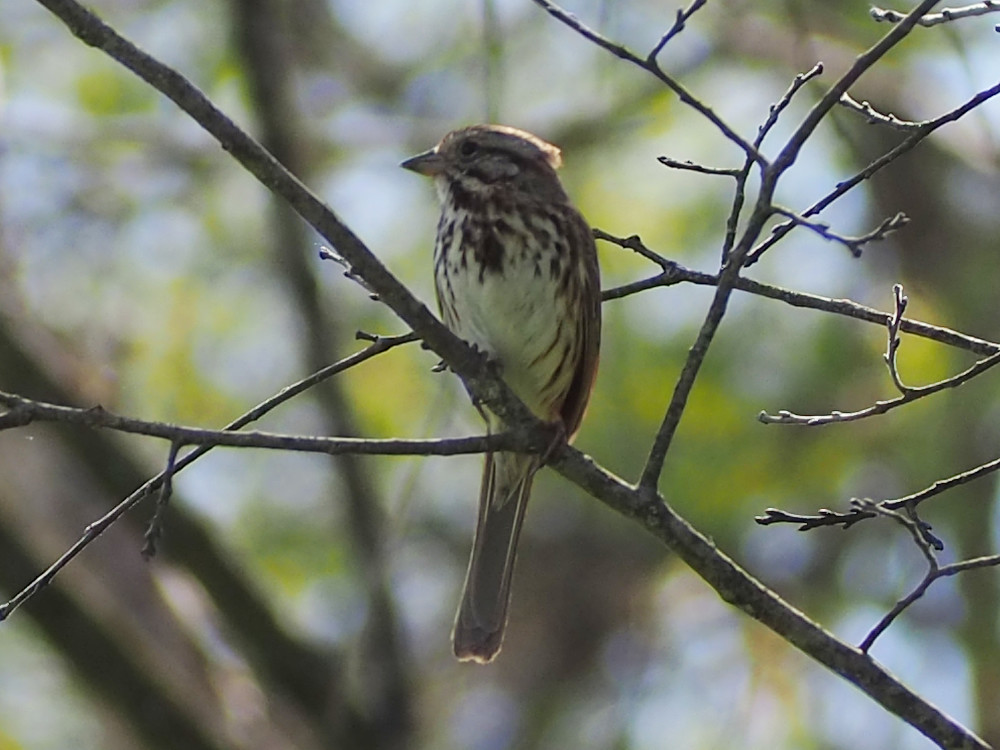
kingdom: Animalia
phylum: Chordata
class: Aves
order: Passeriformes
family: Passerellidae
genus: Melospiza
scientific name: Melospiza melodia
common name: Song sparrow
